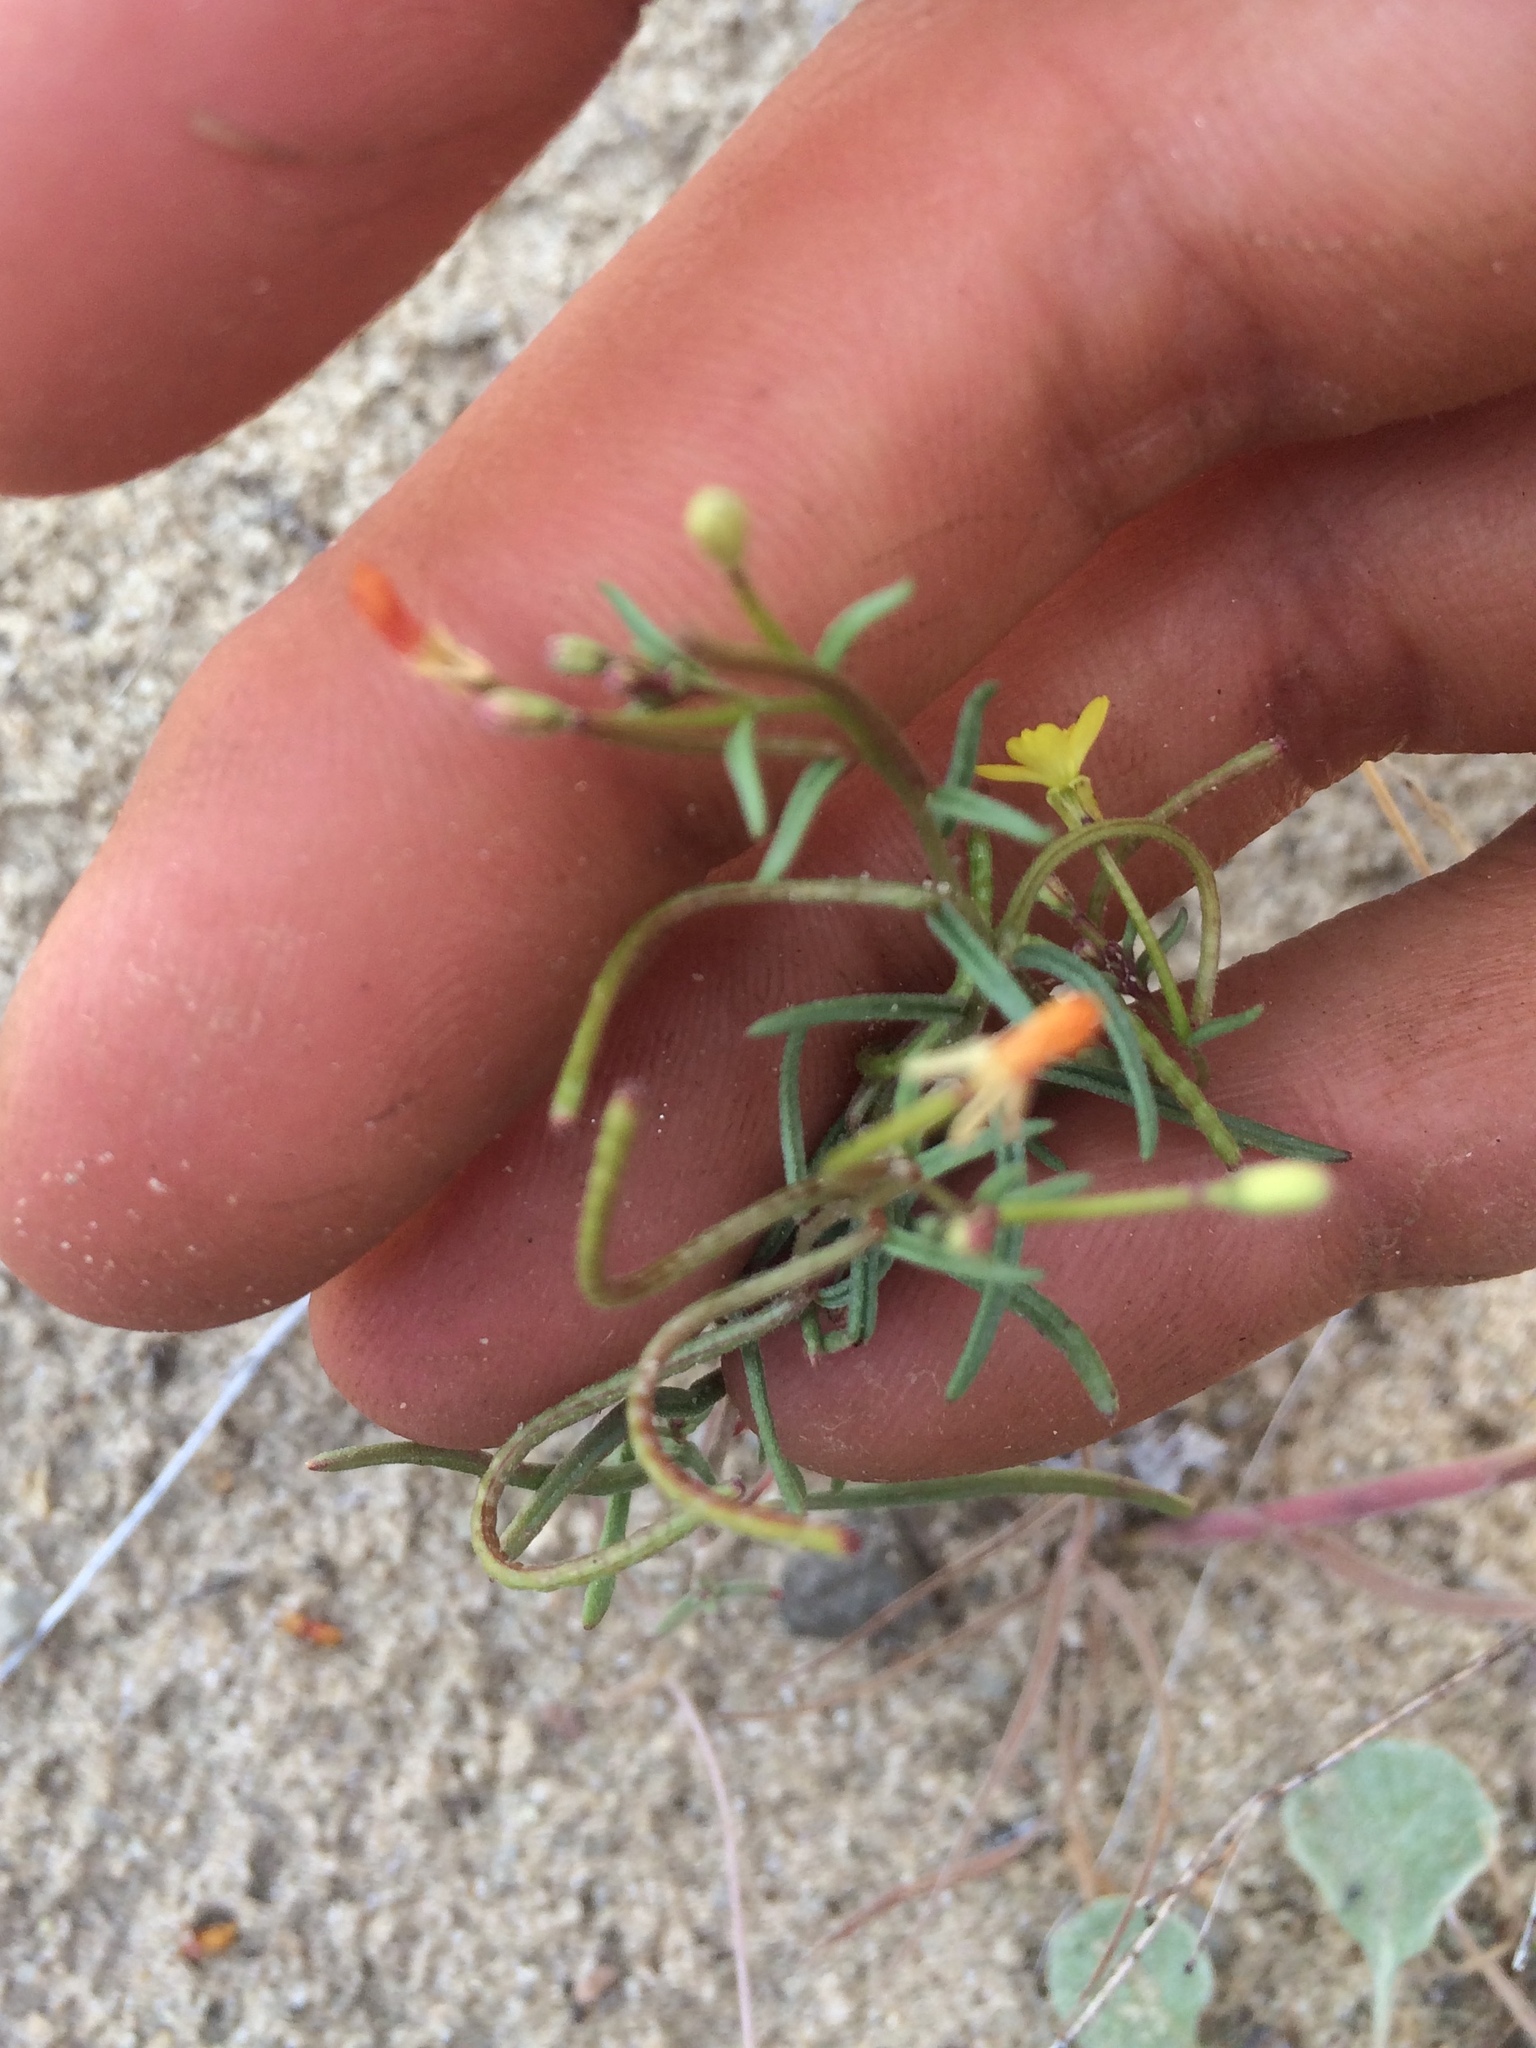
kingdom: Plantae
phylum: Tracheophyta
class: Magnoliopsida
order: Myrtales
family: Onagraceae
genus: Camissonia
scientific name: Camissonia parvula
